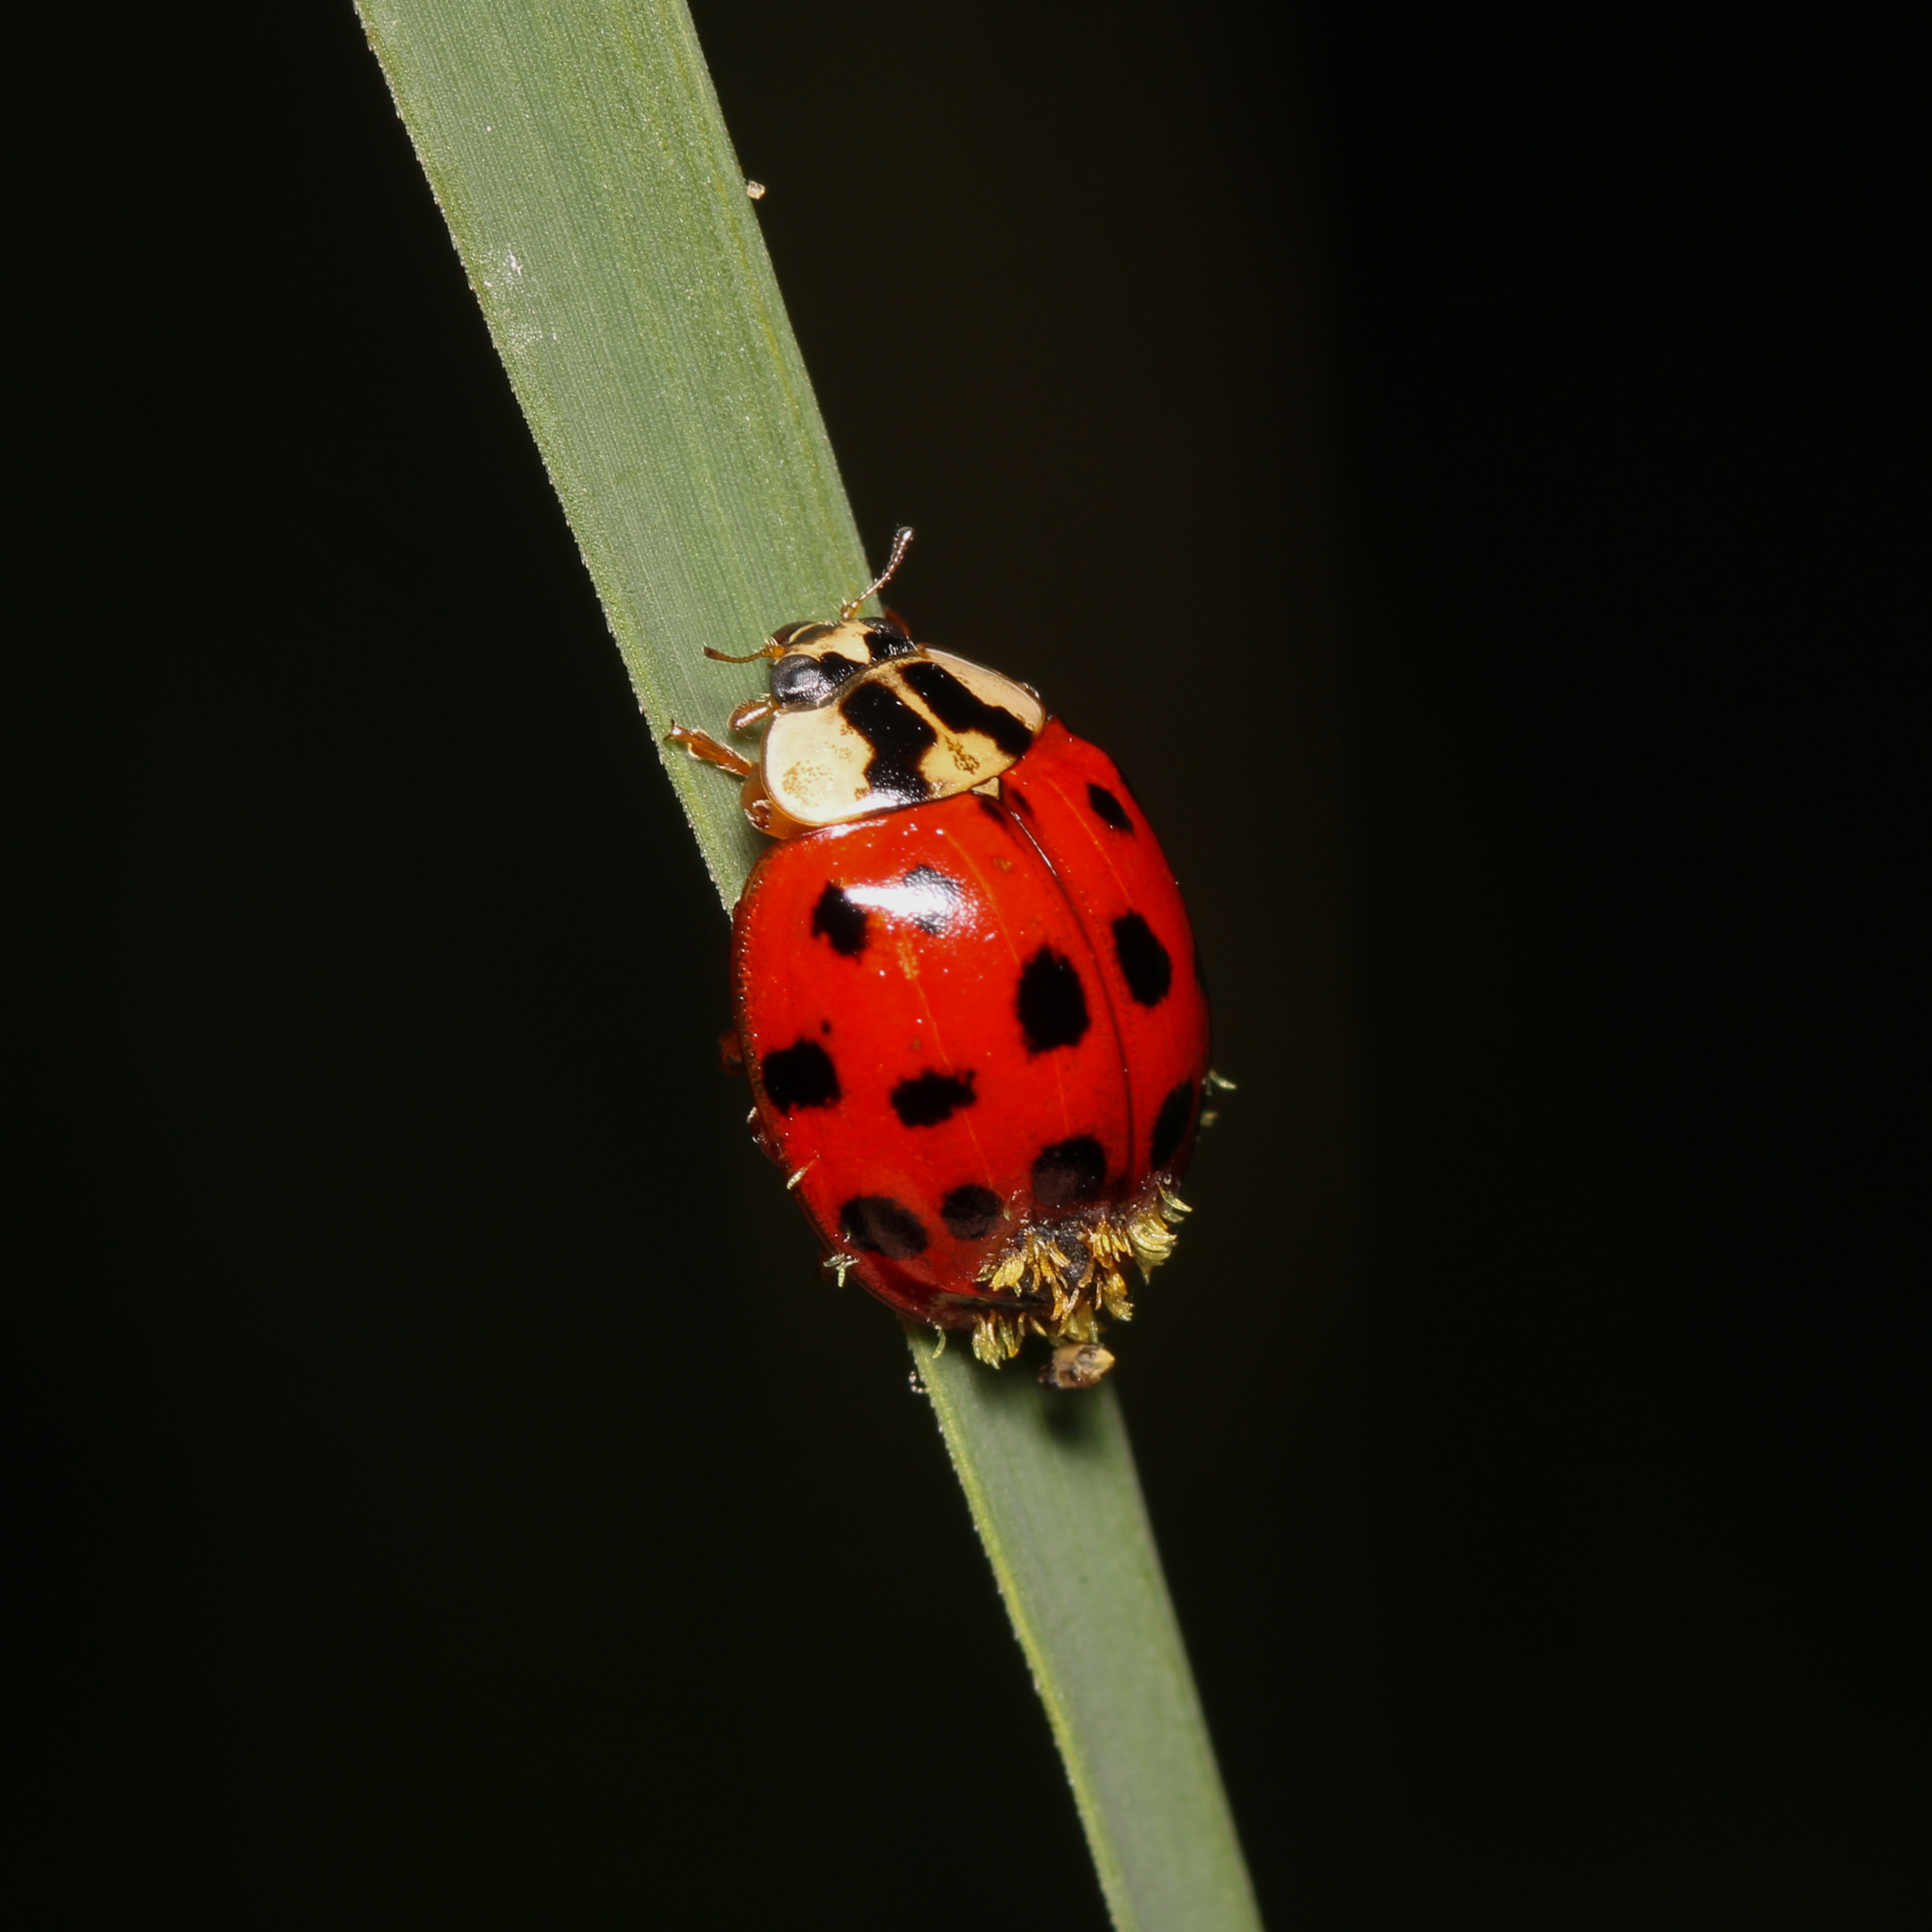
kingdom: Animalia
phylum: Arthropoda
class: Insecta
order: Coleoptera
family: Coccinellidae
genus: Harmonia
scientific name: Harmonia axyridis
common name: Harlequin ladybird
